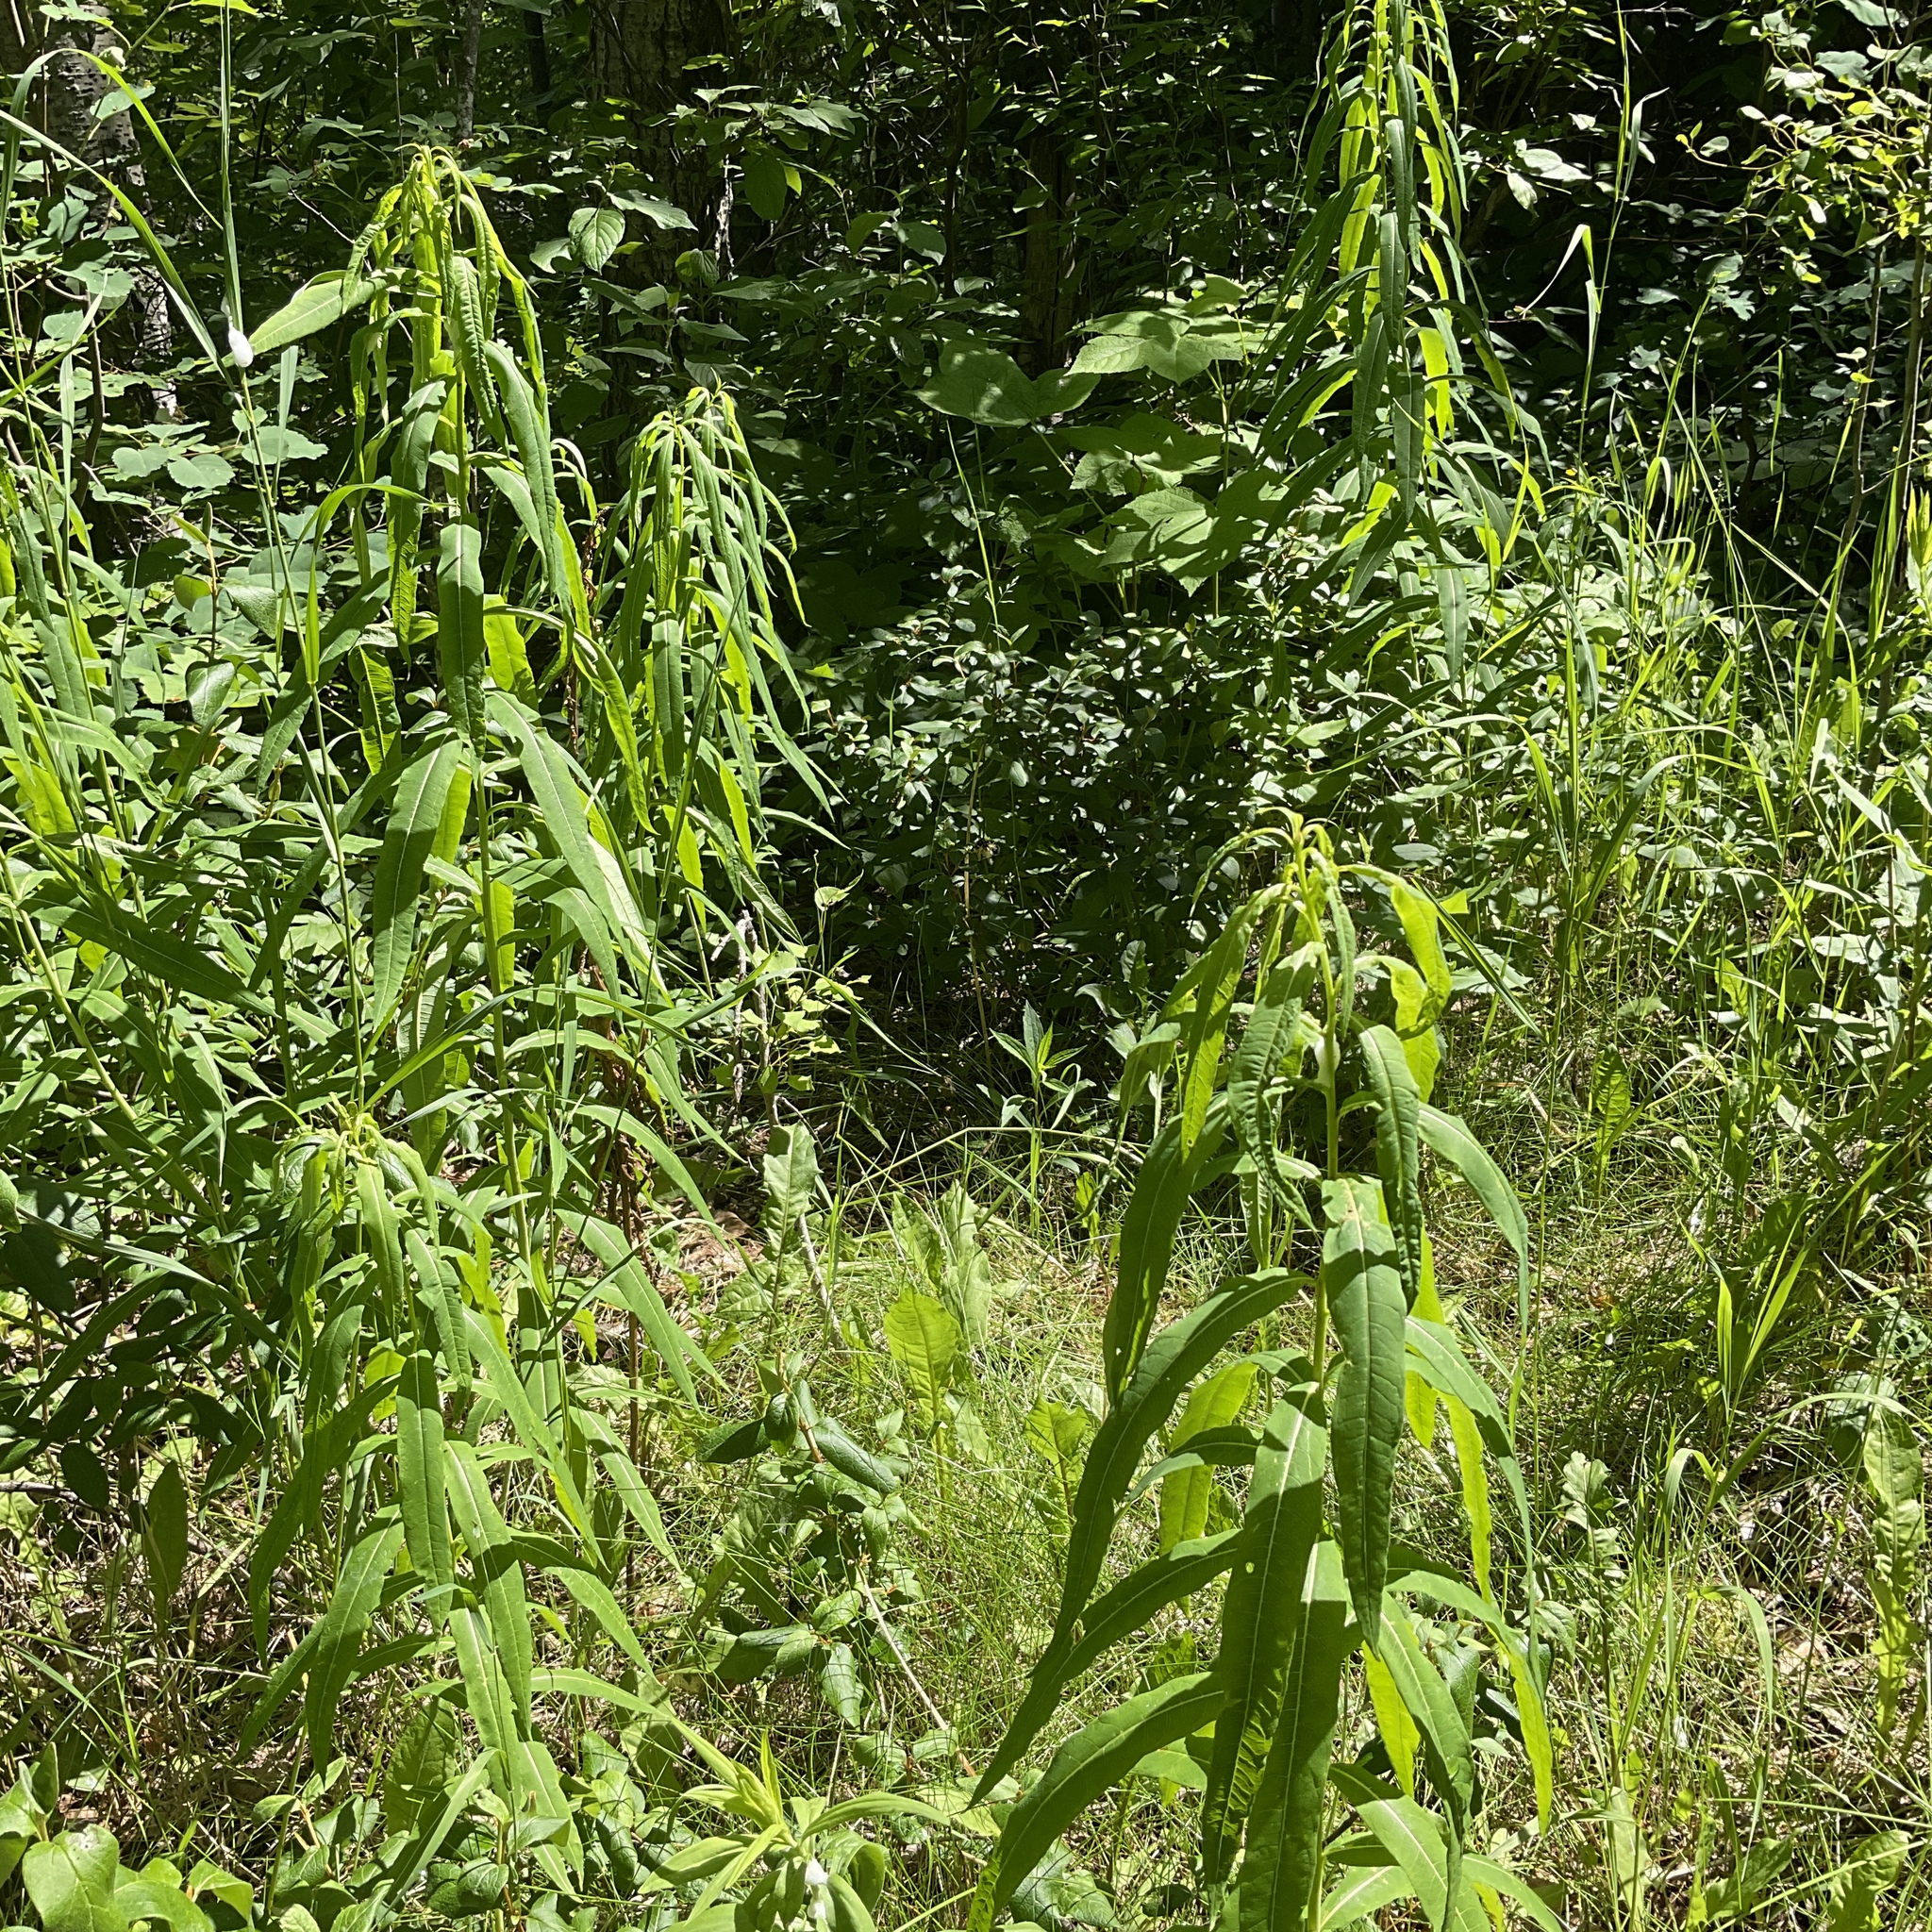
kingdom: Plantae
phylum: Tracheophyta
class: Magnoliopsida
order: Myrtales
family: Onagraceae
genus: Chamaenerion
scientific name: Chamaenerion angustifolium
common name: Fireweed
